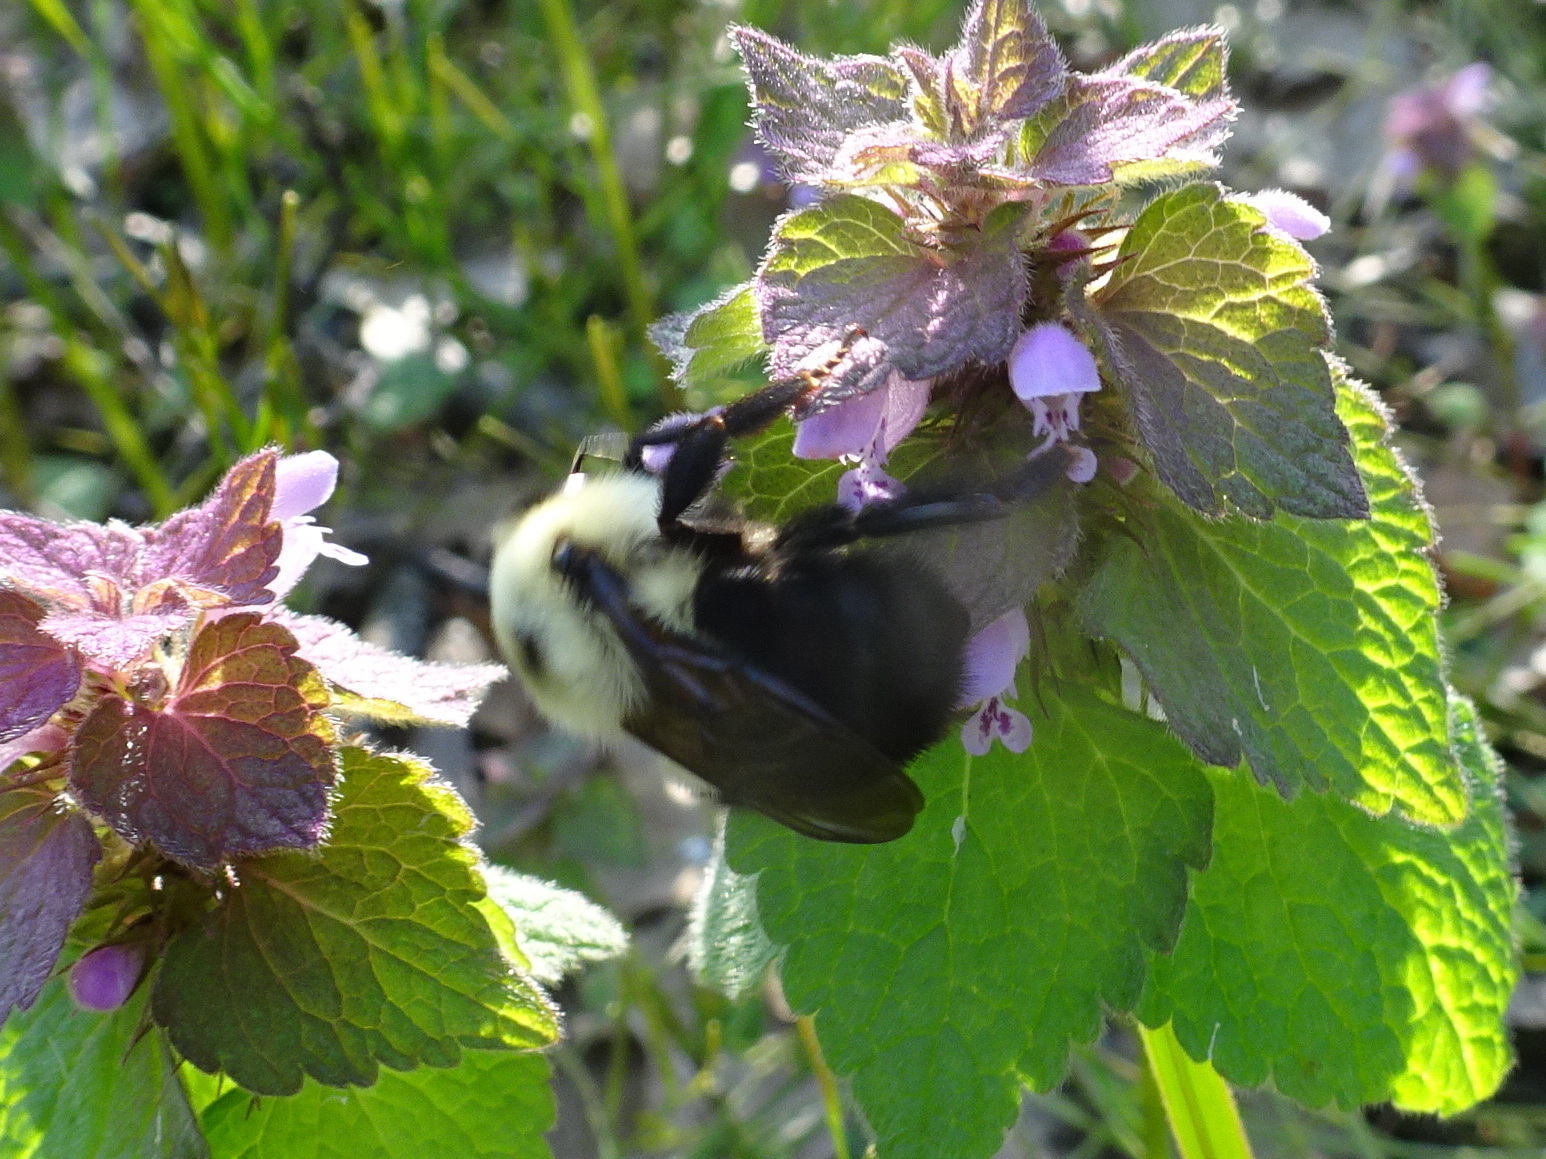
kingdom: Animalia
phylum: Arthropoda
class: Insecta
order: Hymenoptera
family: Apidae
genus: Bombus
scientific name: Bombus bimaculatus
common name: Two-spotted bumble bee
